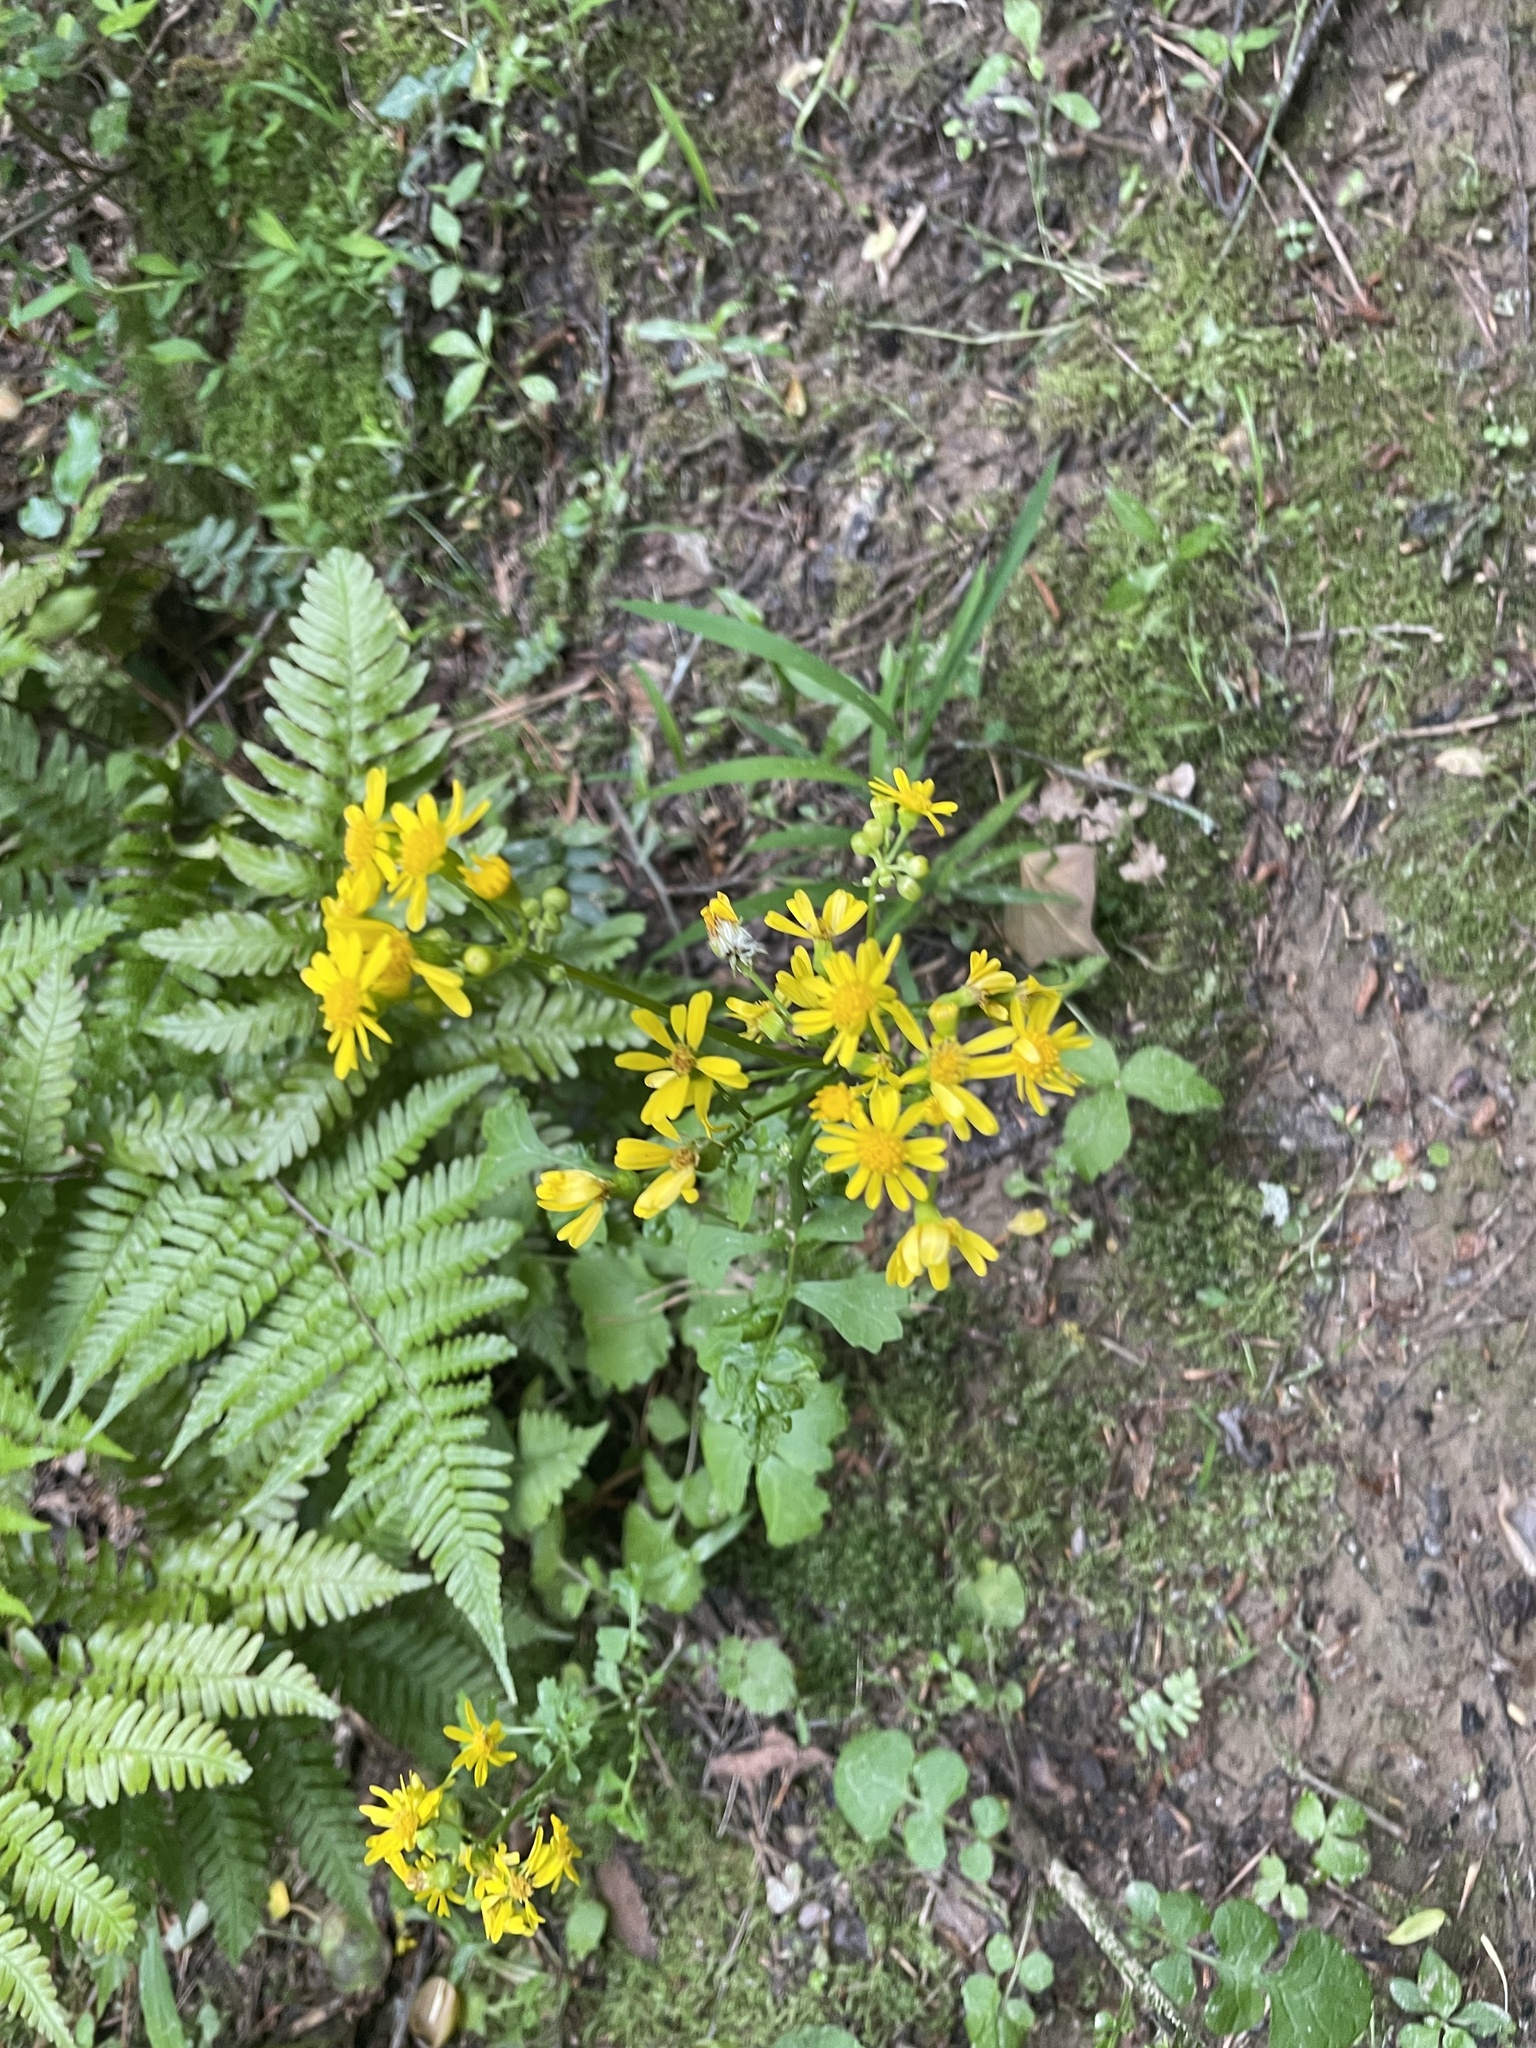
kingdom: Plantae
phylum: Tracheophyta
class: Magnoliopsida
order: Asterales
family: Asteraceae
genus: Packera
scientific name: Packera glabella
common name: Butterweed
